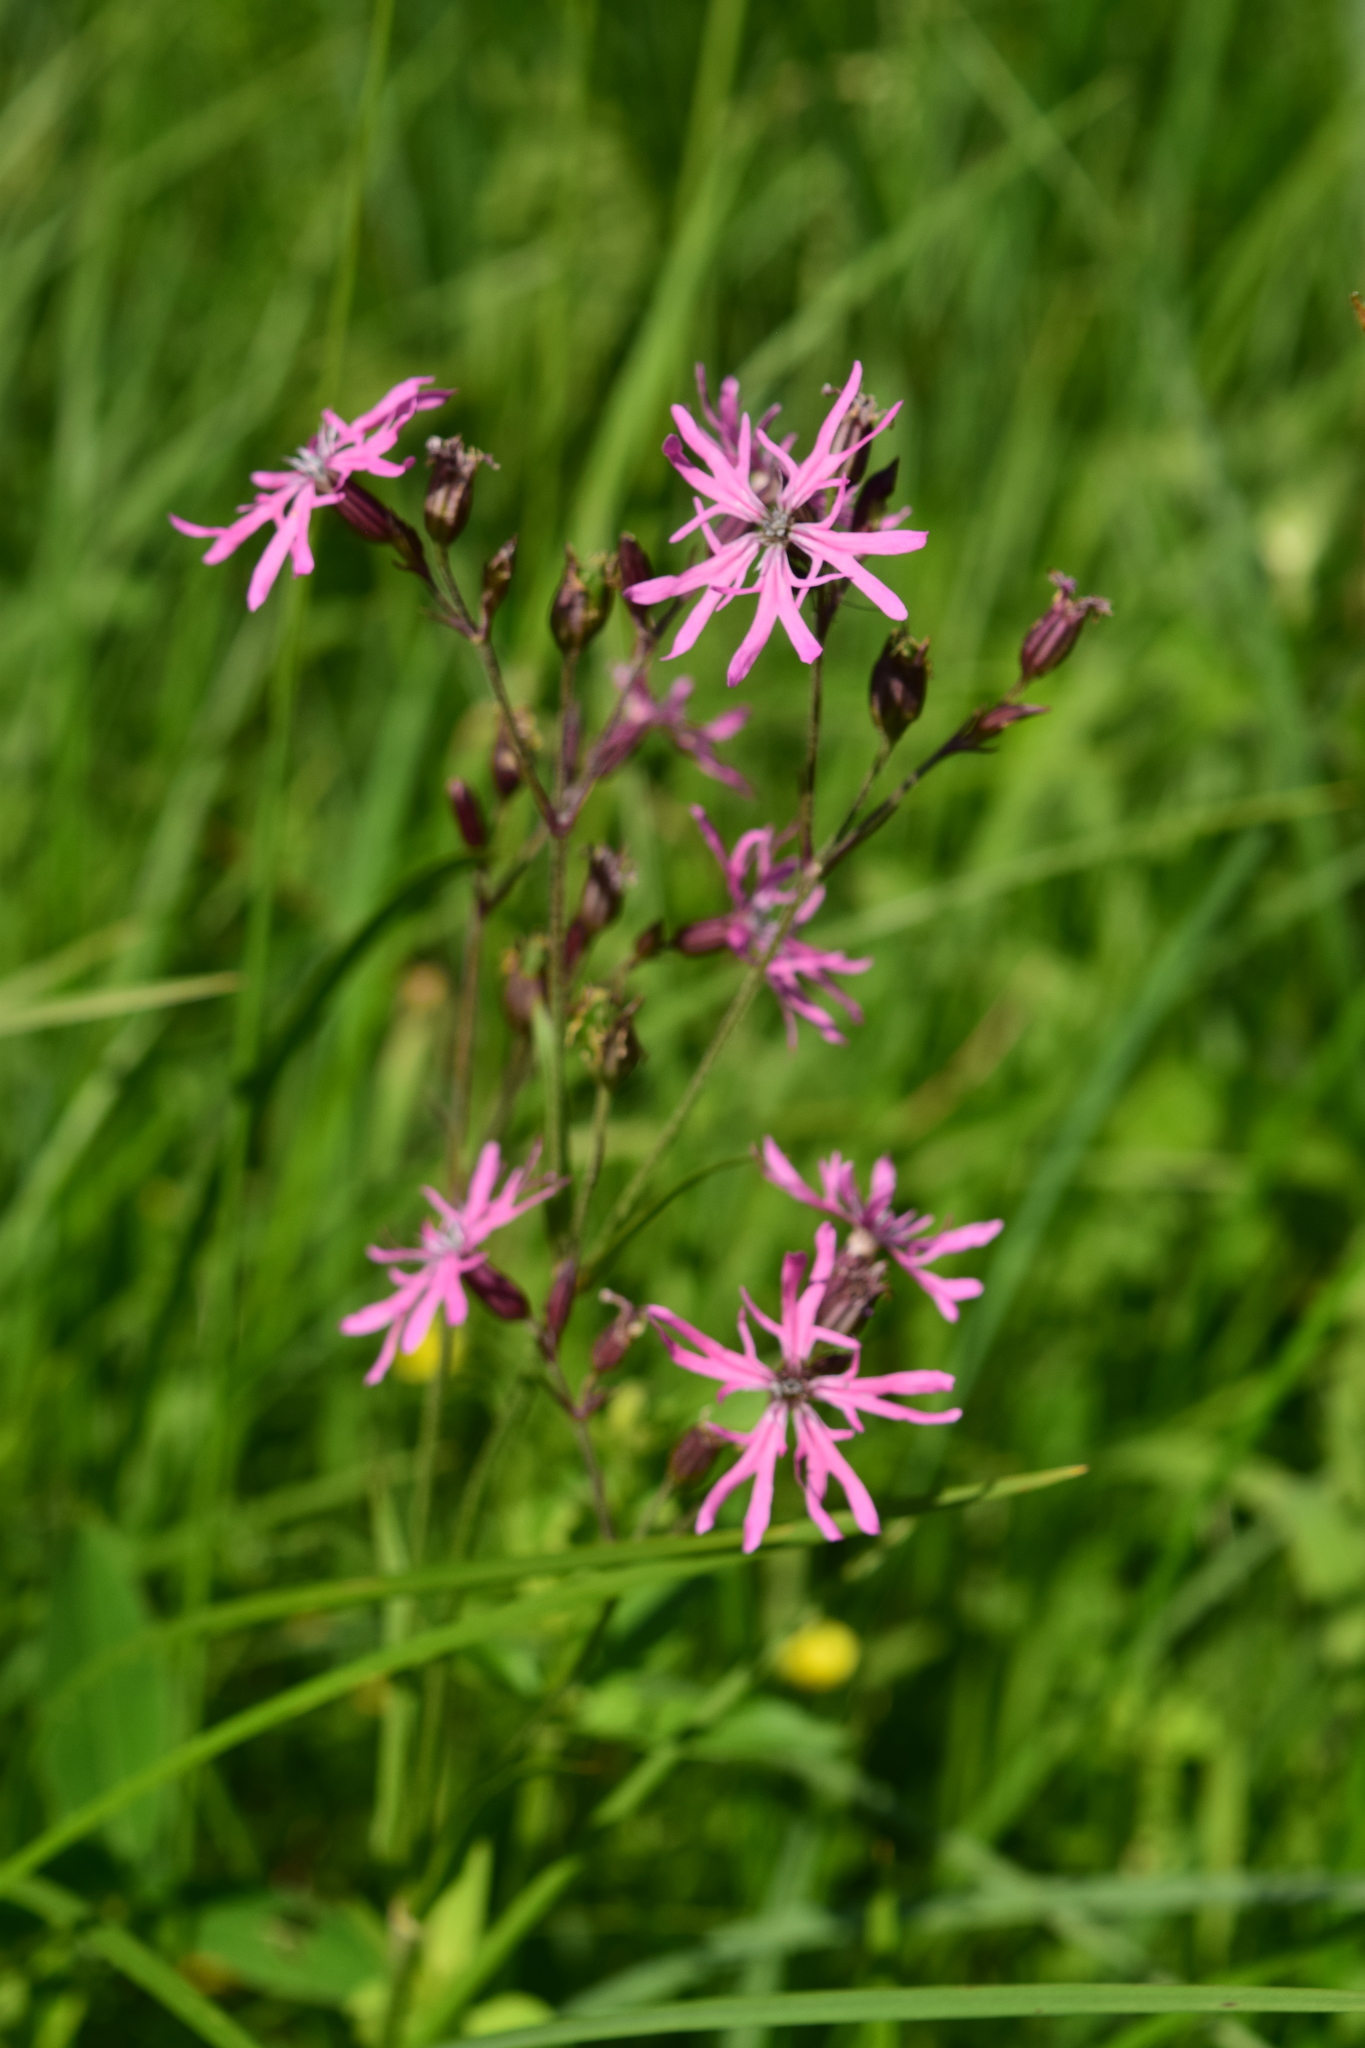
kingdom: Plantae
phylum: Tracheophyta
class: Magnoliopsida
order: Caryophyllales
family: Caryophyllaceae
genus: Silene
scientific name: Silene flos-cuculi
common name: Ragged-robin
